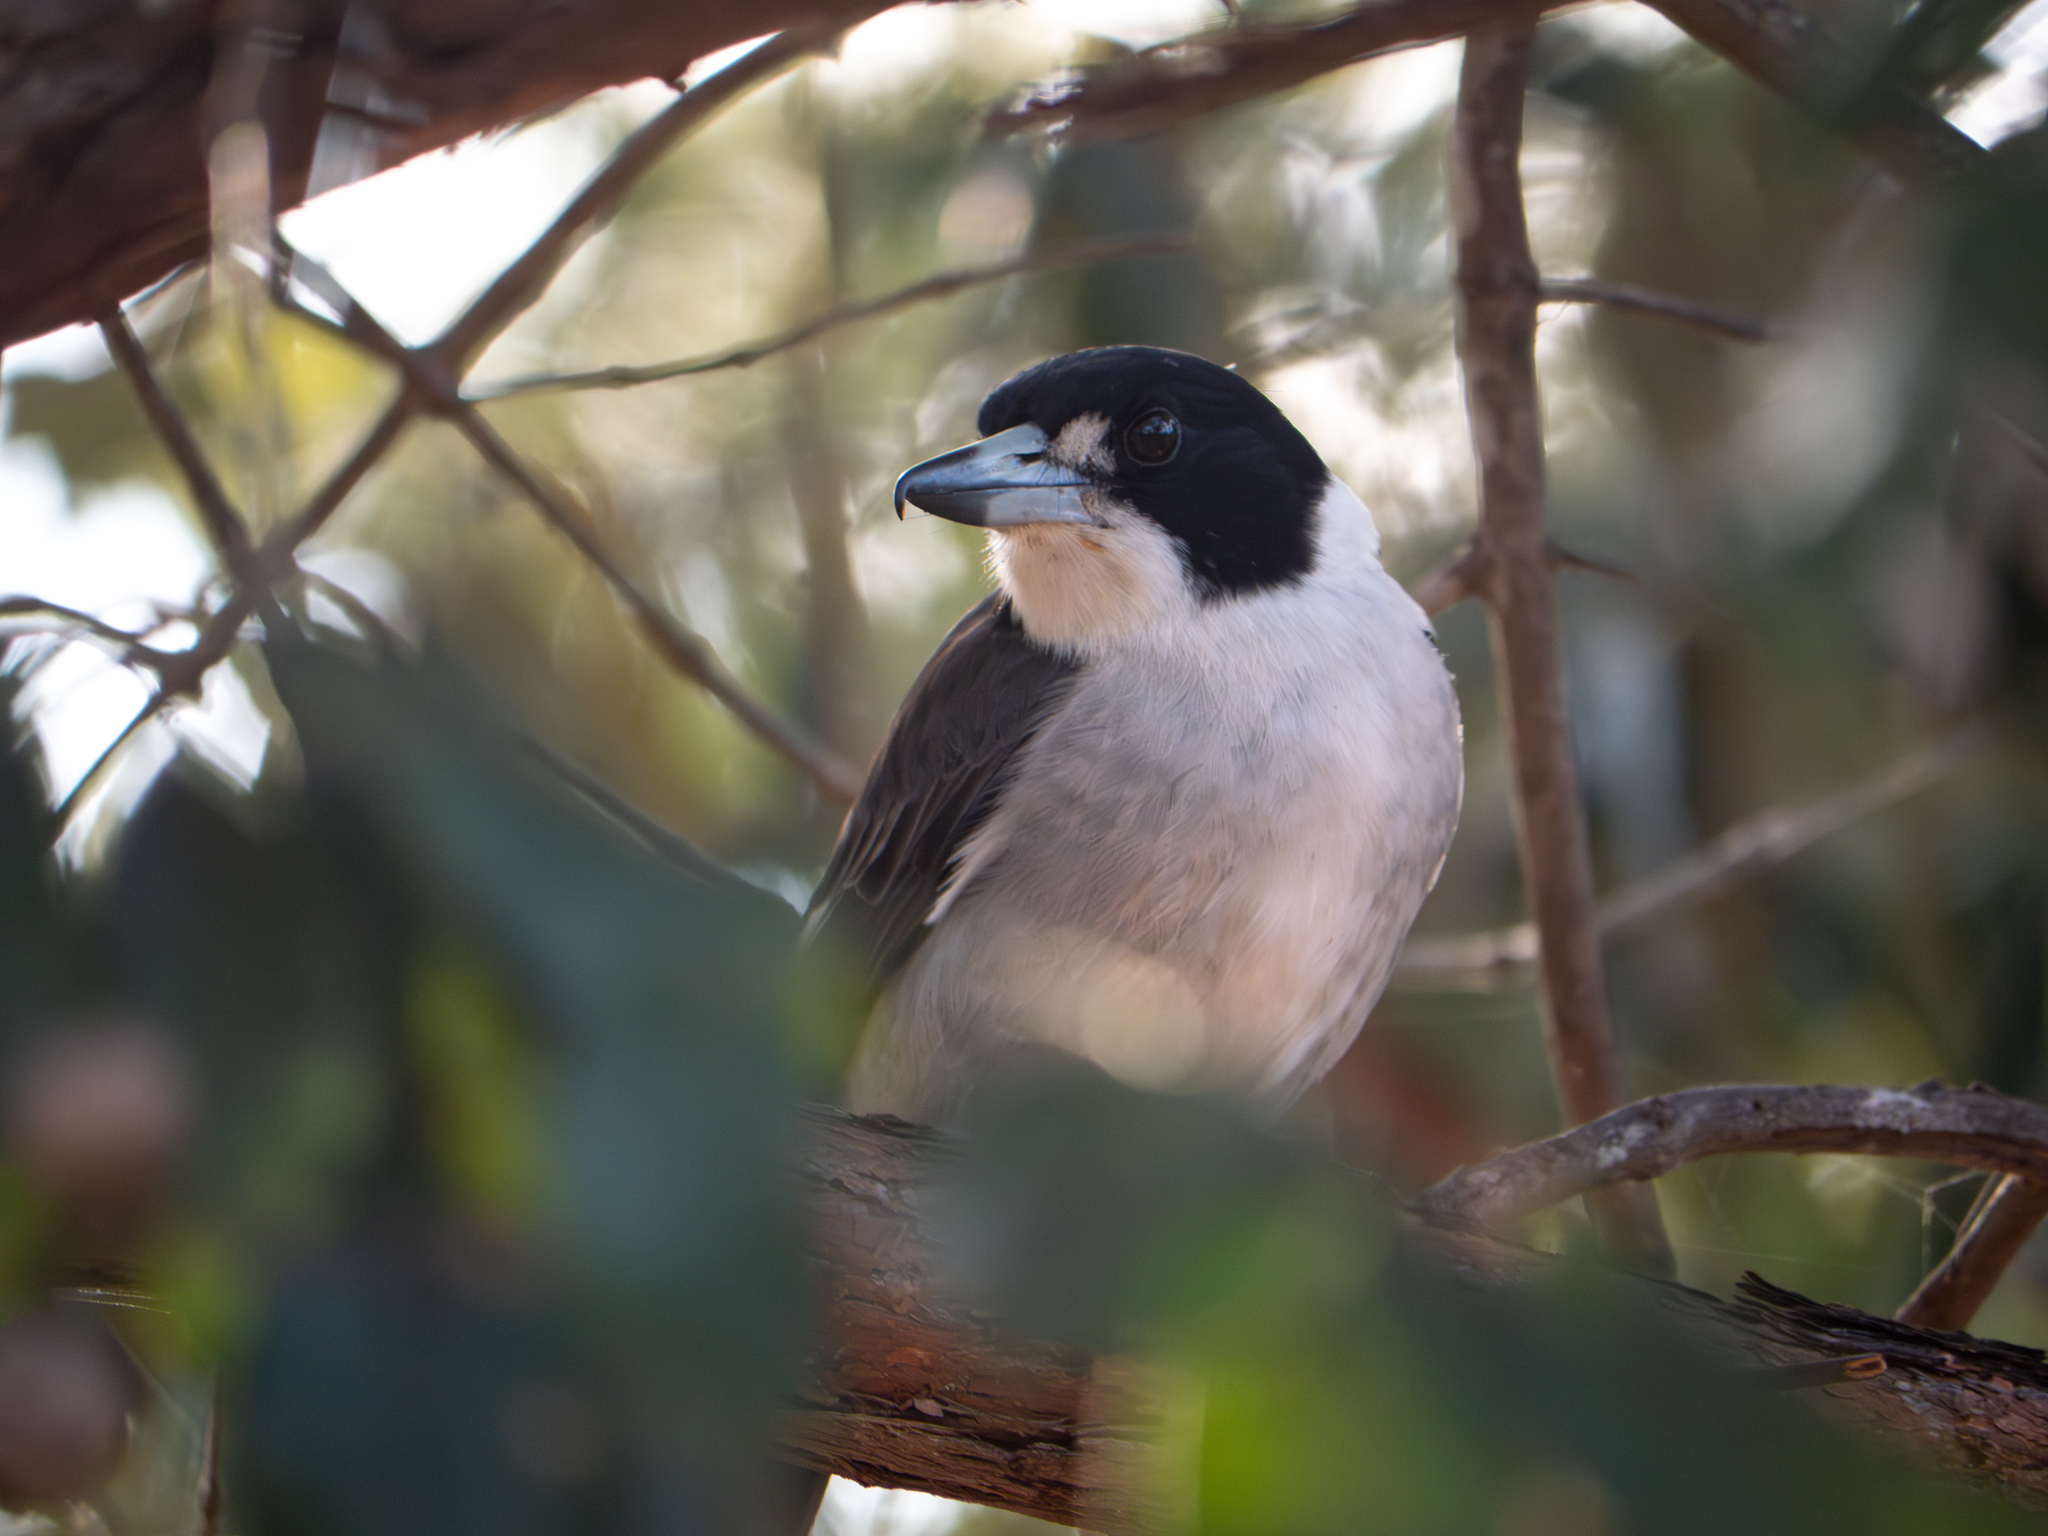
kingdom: Animalia
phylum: Chordata
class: Aves
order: Passeriformes
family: Cracticidae
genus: Cracticus
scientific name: Cracticus torquatus
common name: Grey butcherbird
